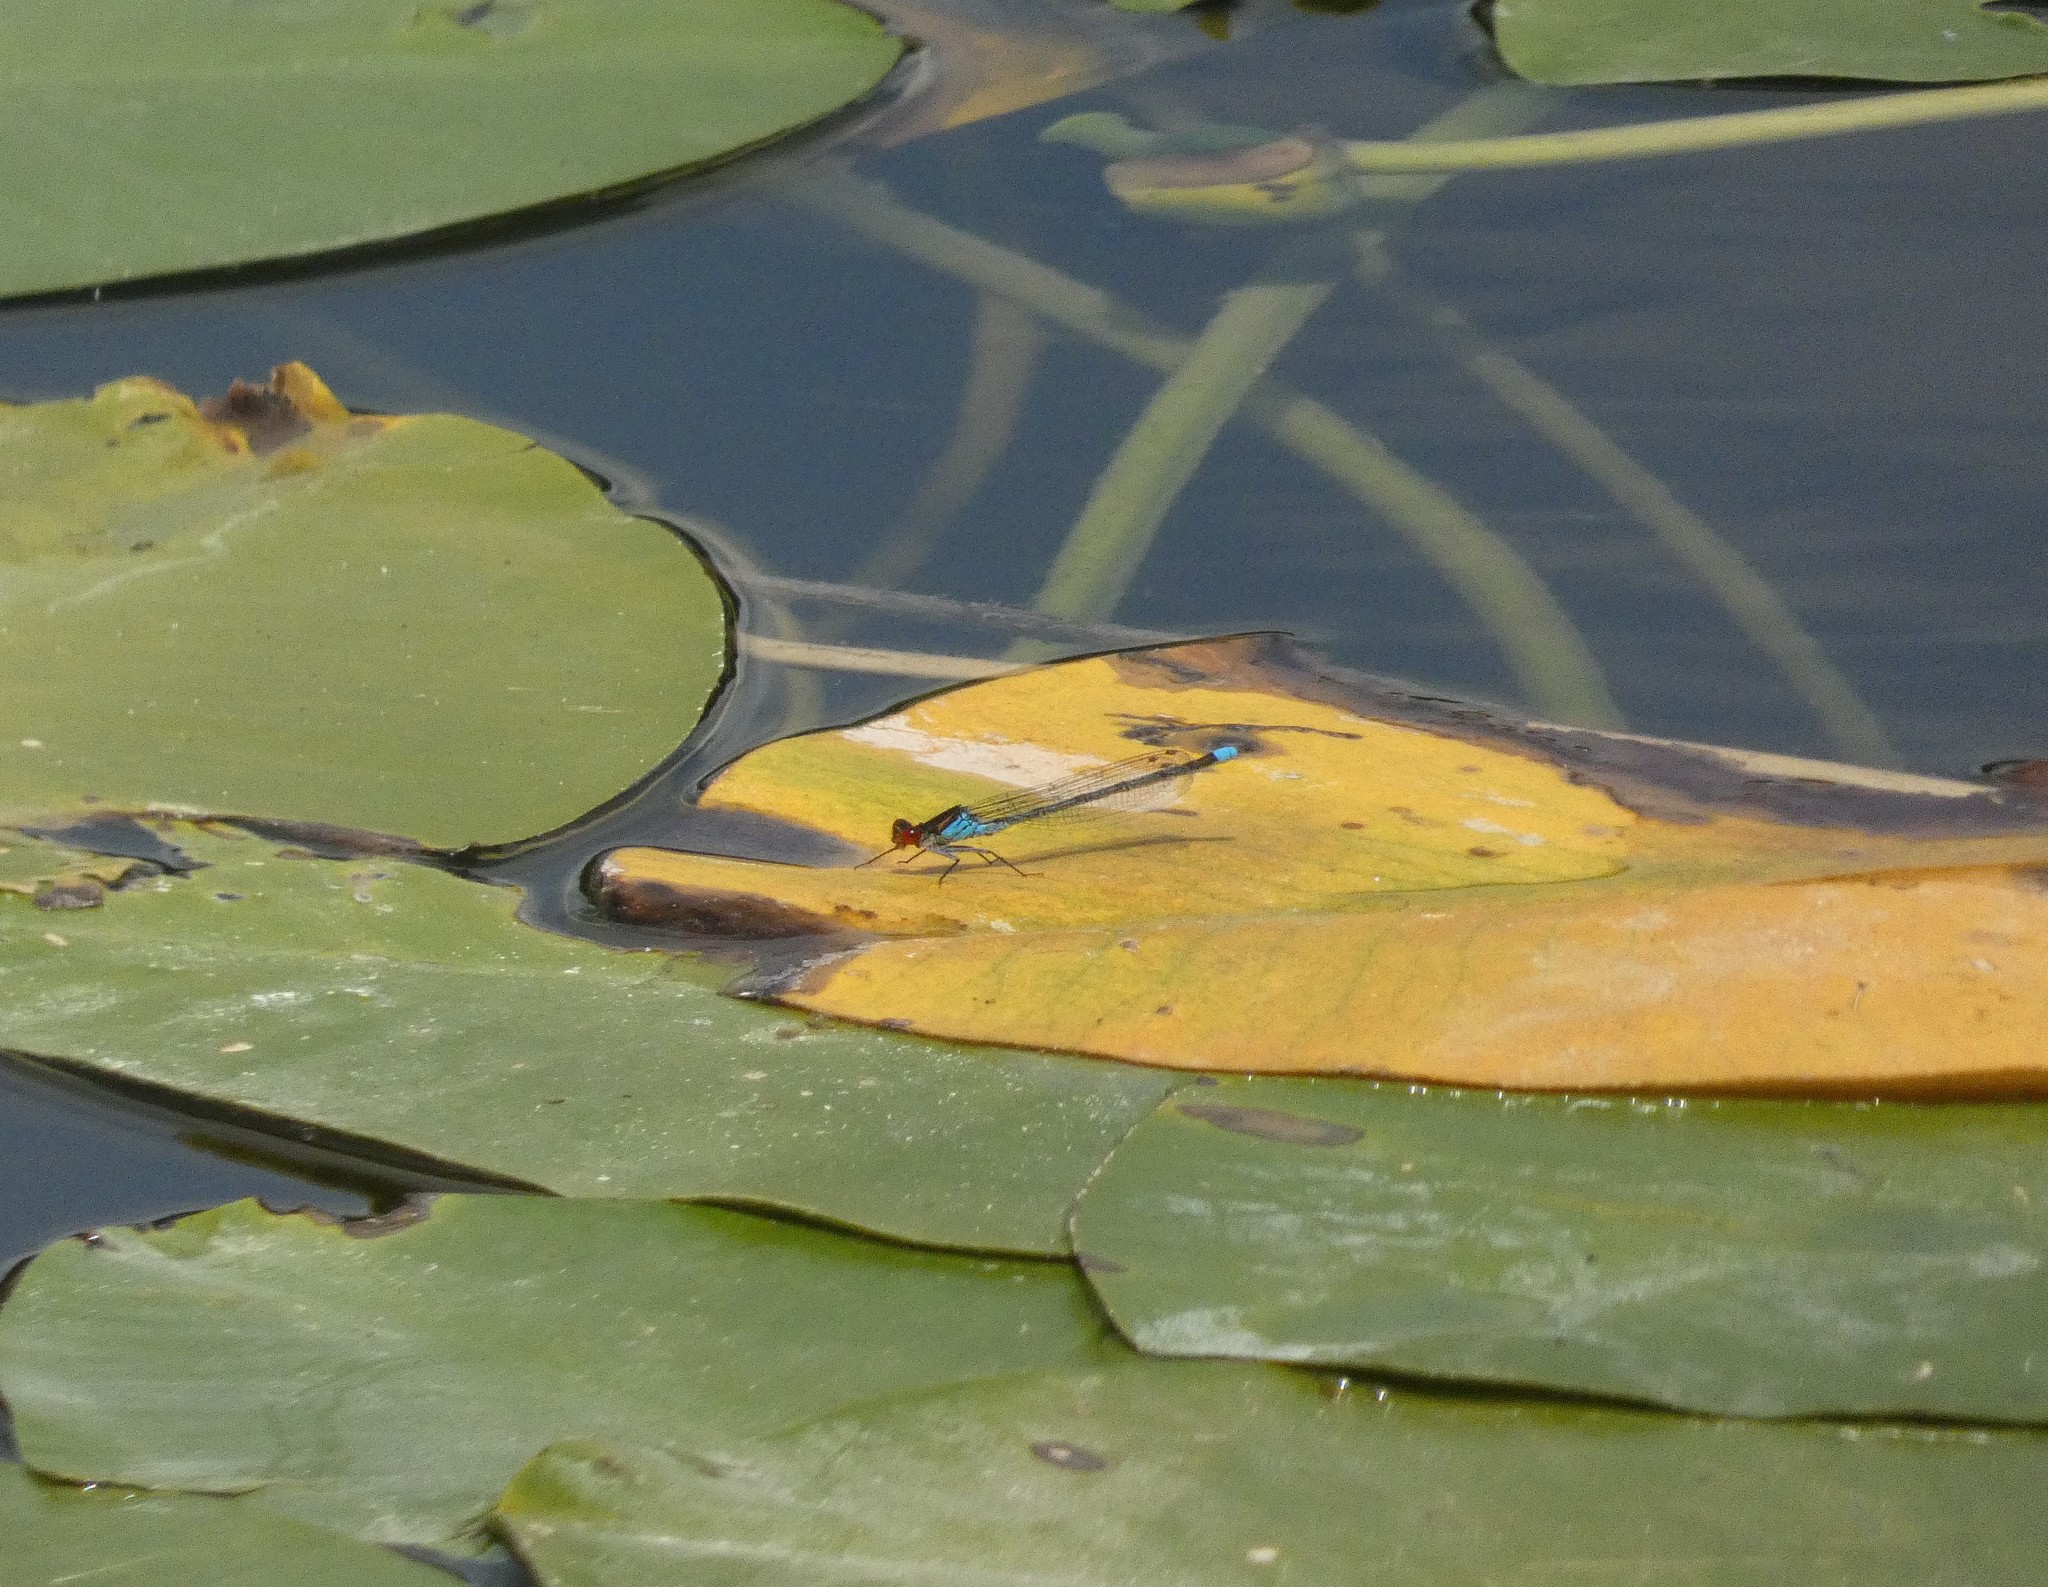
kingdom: Animalia
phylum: Arthropoda
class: Insecta
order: Odonata
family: Coenagrionidae
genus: Erythromma
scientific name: Erythromma najas
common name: Red-eyed damselfly
